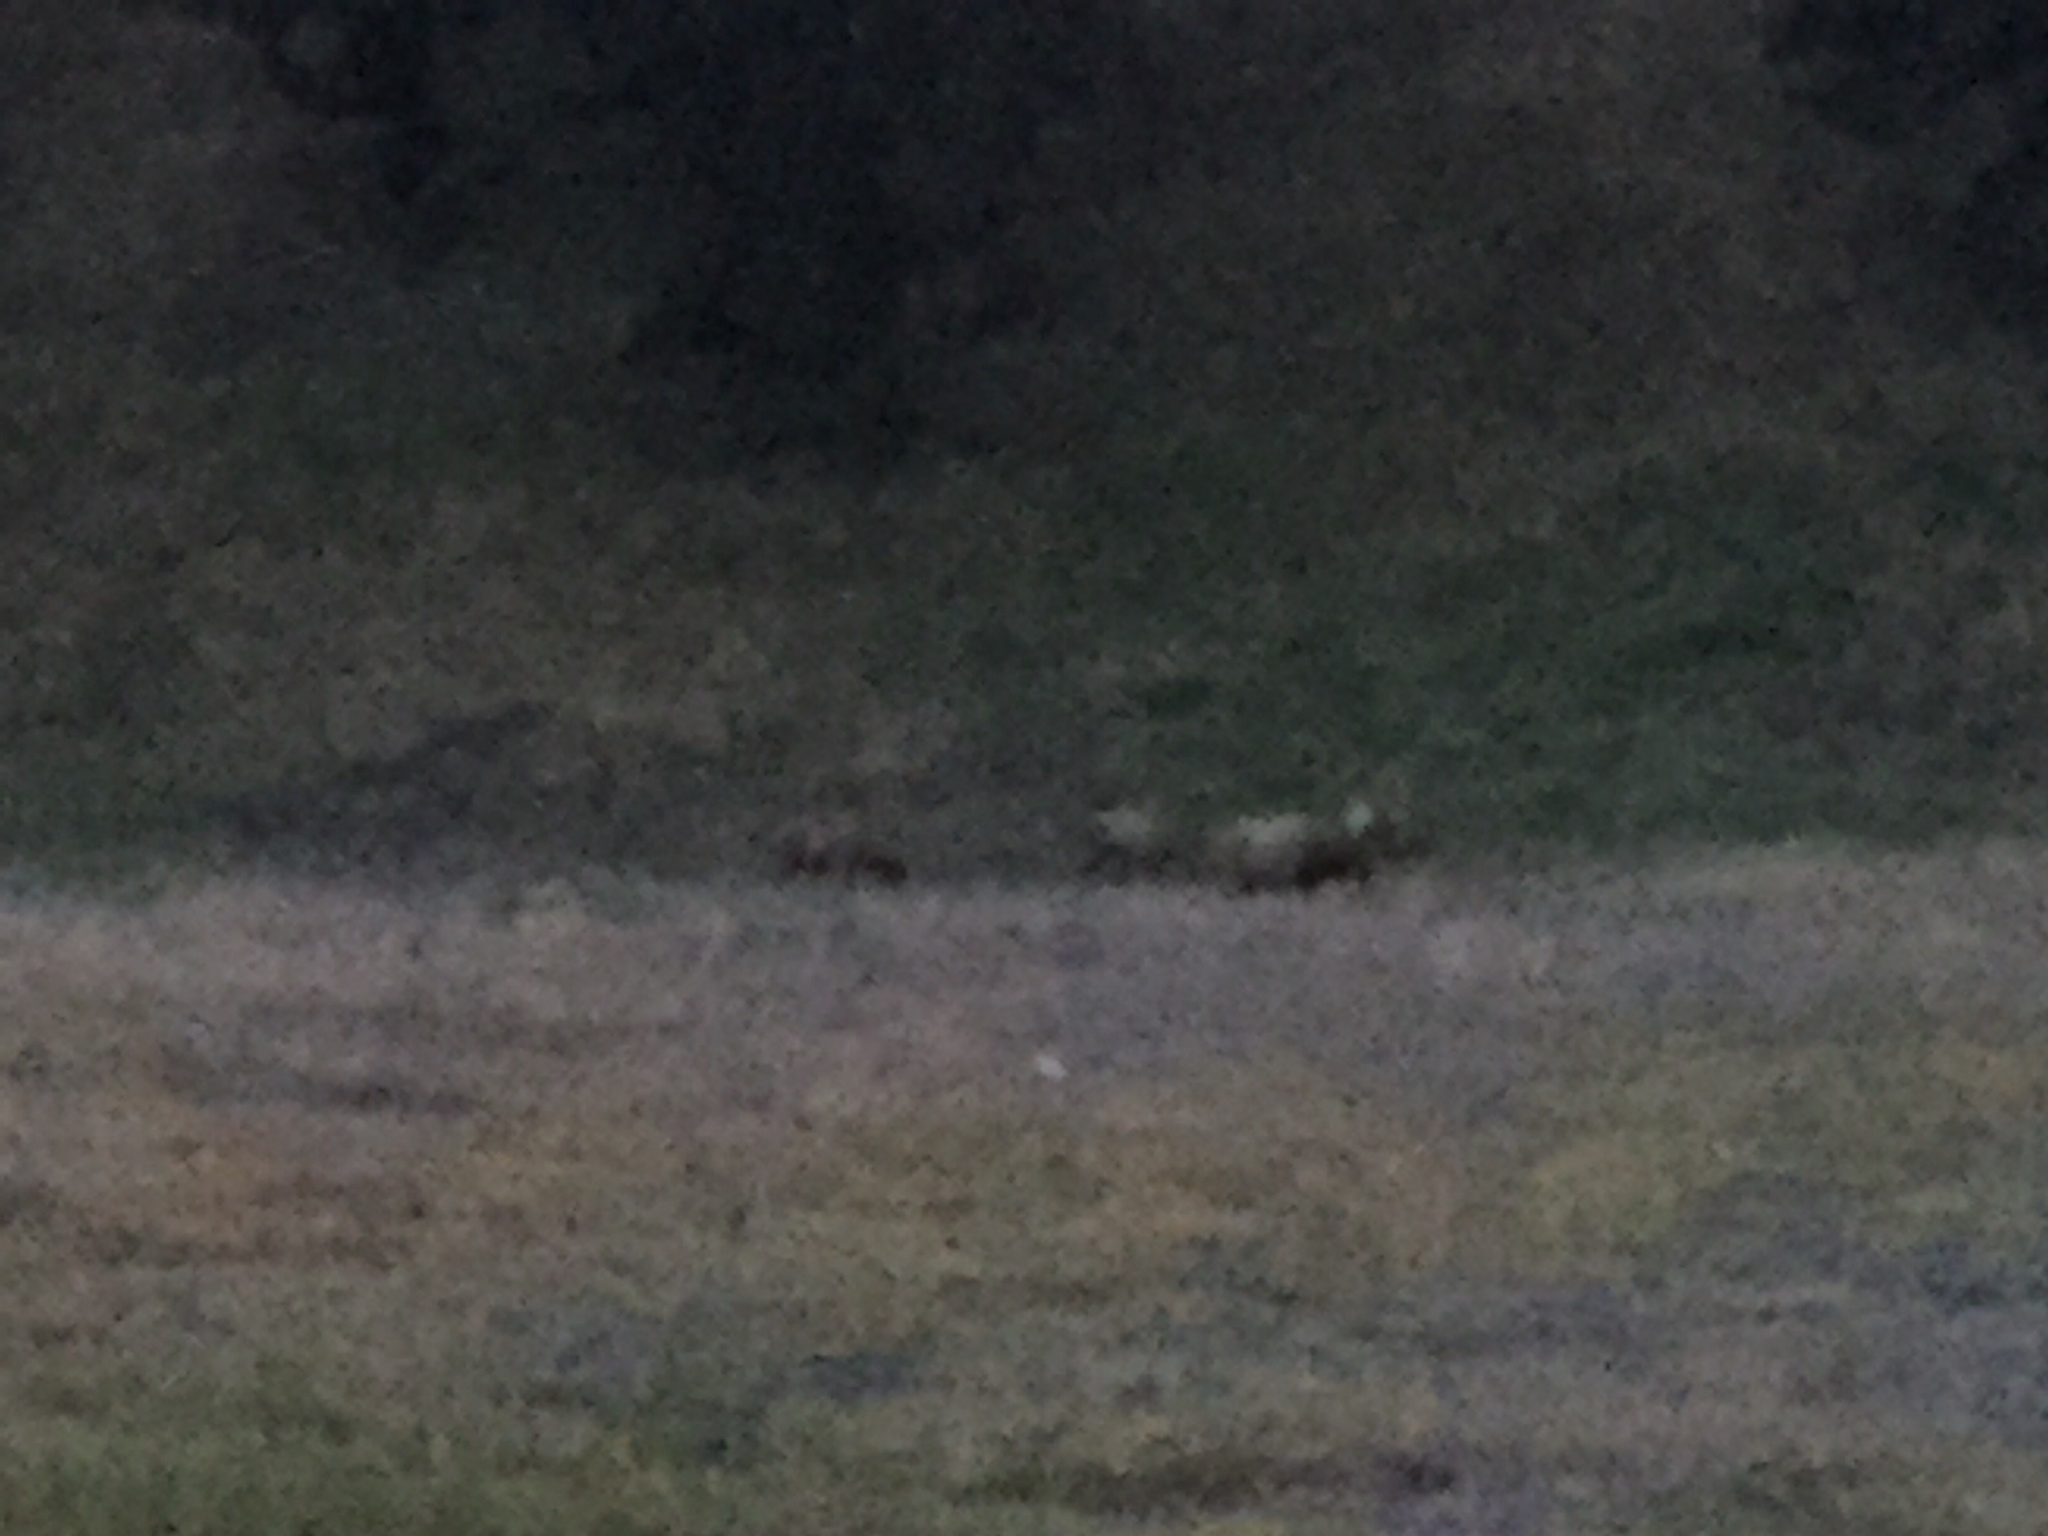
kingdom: Animalia
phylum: Chordata
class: Mammalia
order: Artiodactyla
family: Cervidae
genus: Cervus
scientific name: Cervus elaphus
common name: Red deer
